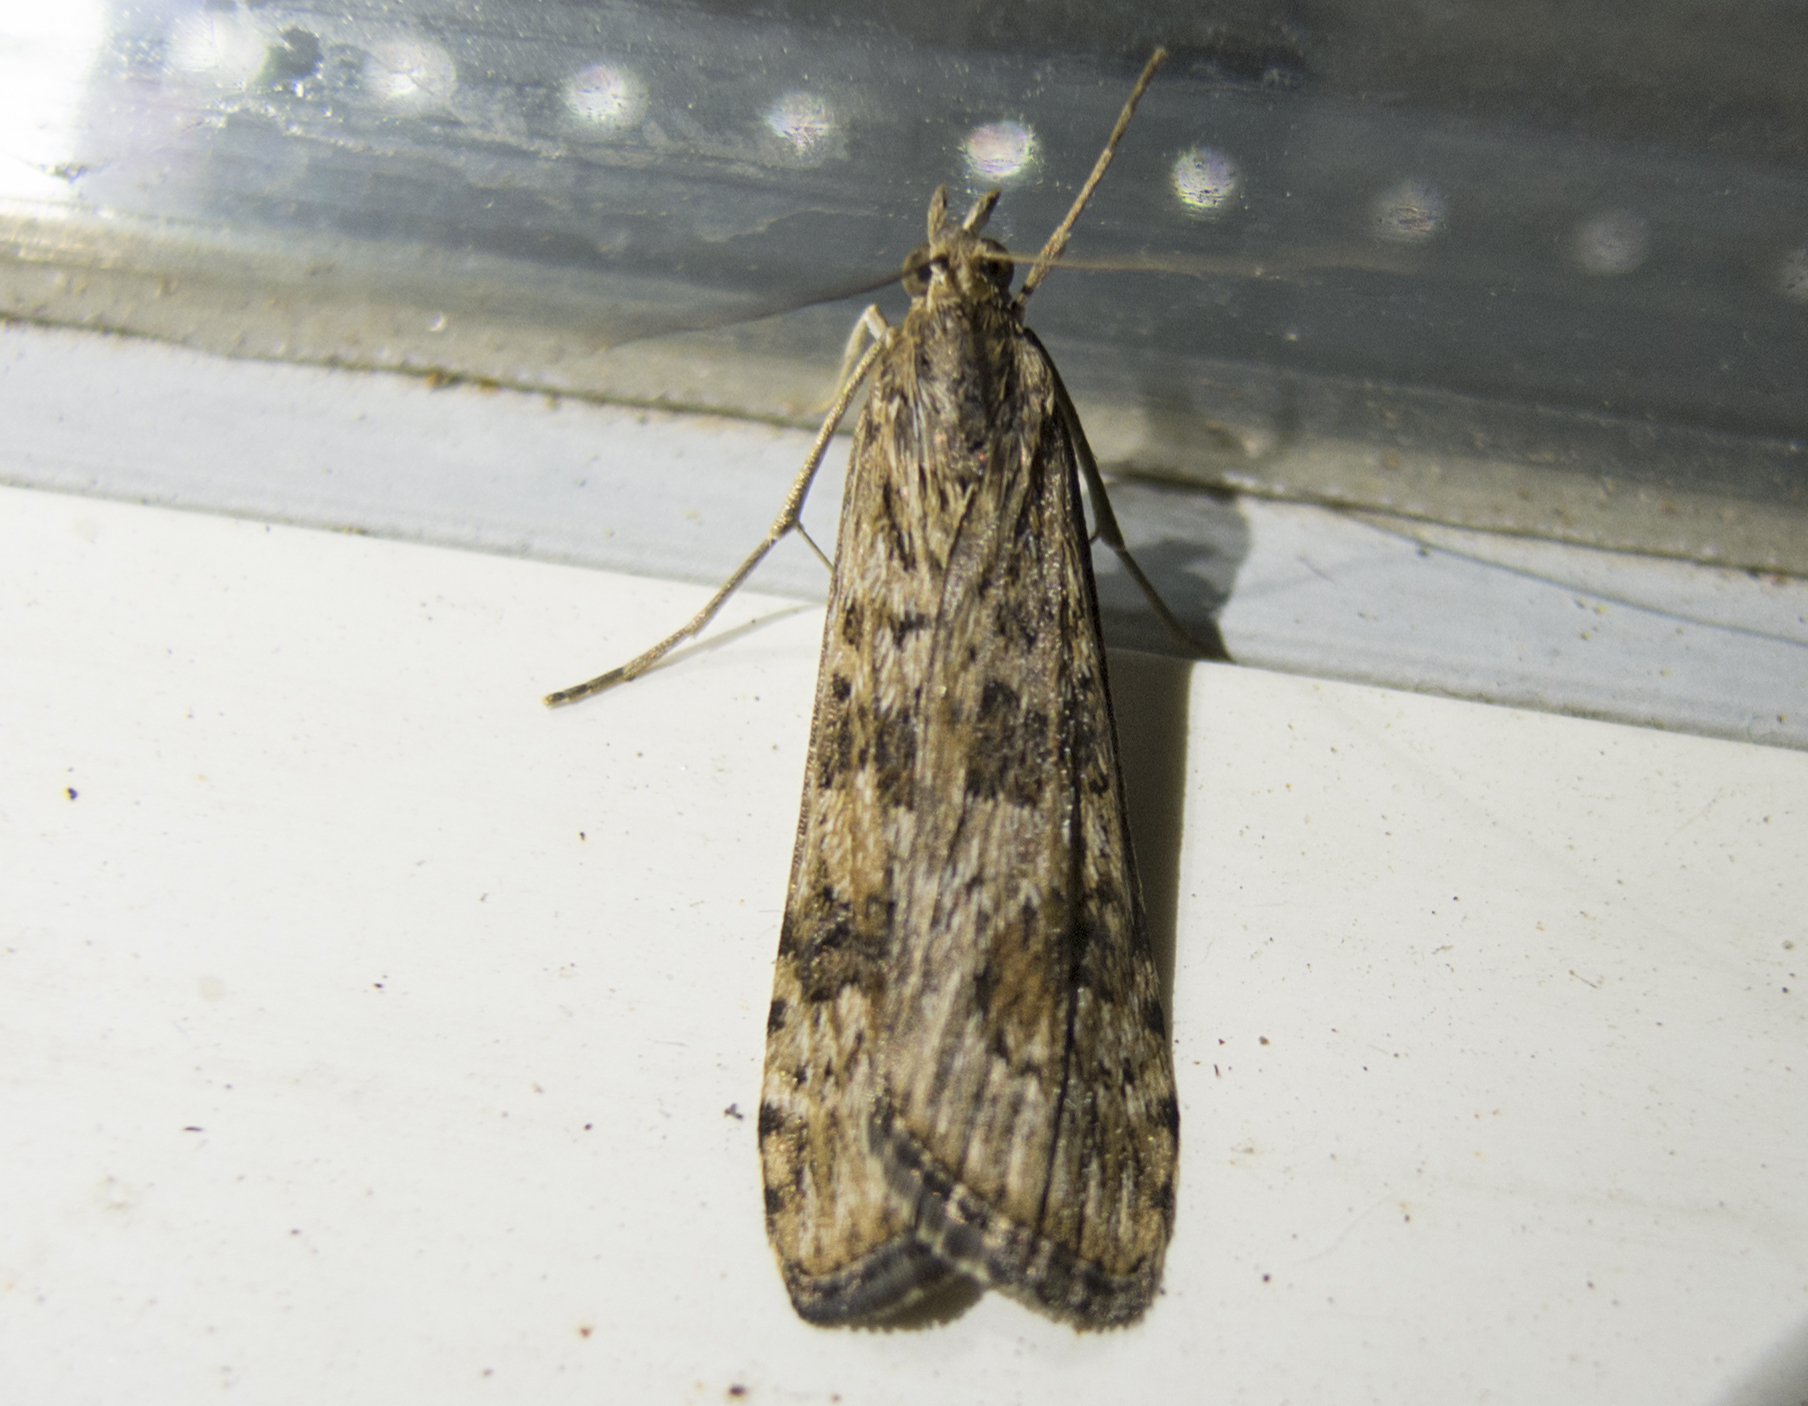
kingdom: Animalia
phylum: Arthropoda
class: Insecta
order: Lepidoptera
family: Crambidae
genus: Nomophila
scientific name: Nomophila noctuella
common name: Rush veneer
